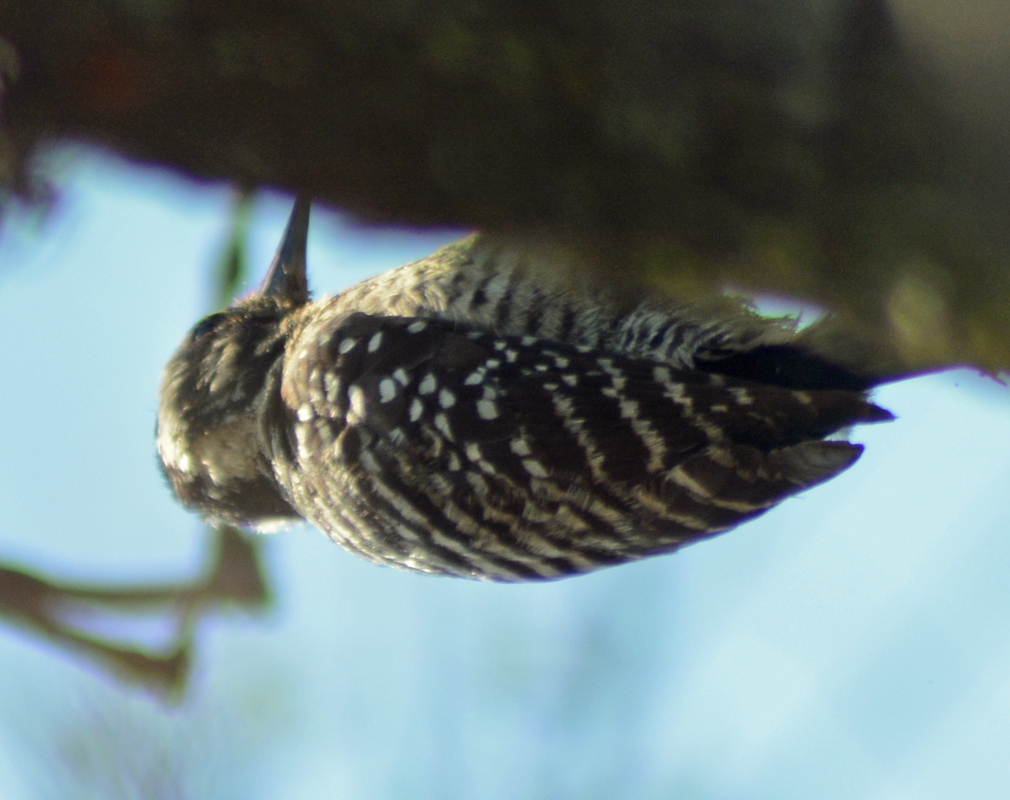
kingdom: Animalia
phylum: Chordata
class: Aves
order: Piciformes
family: Picidae
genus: Dryobates
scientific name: Dryobates scalaris
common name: Ladder-backed woodpecker
